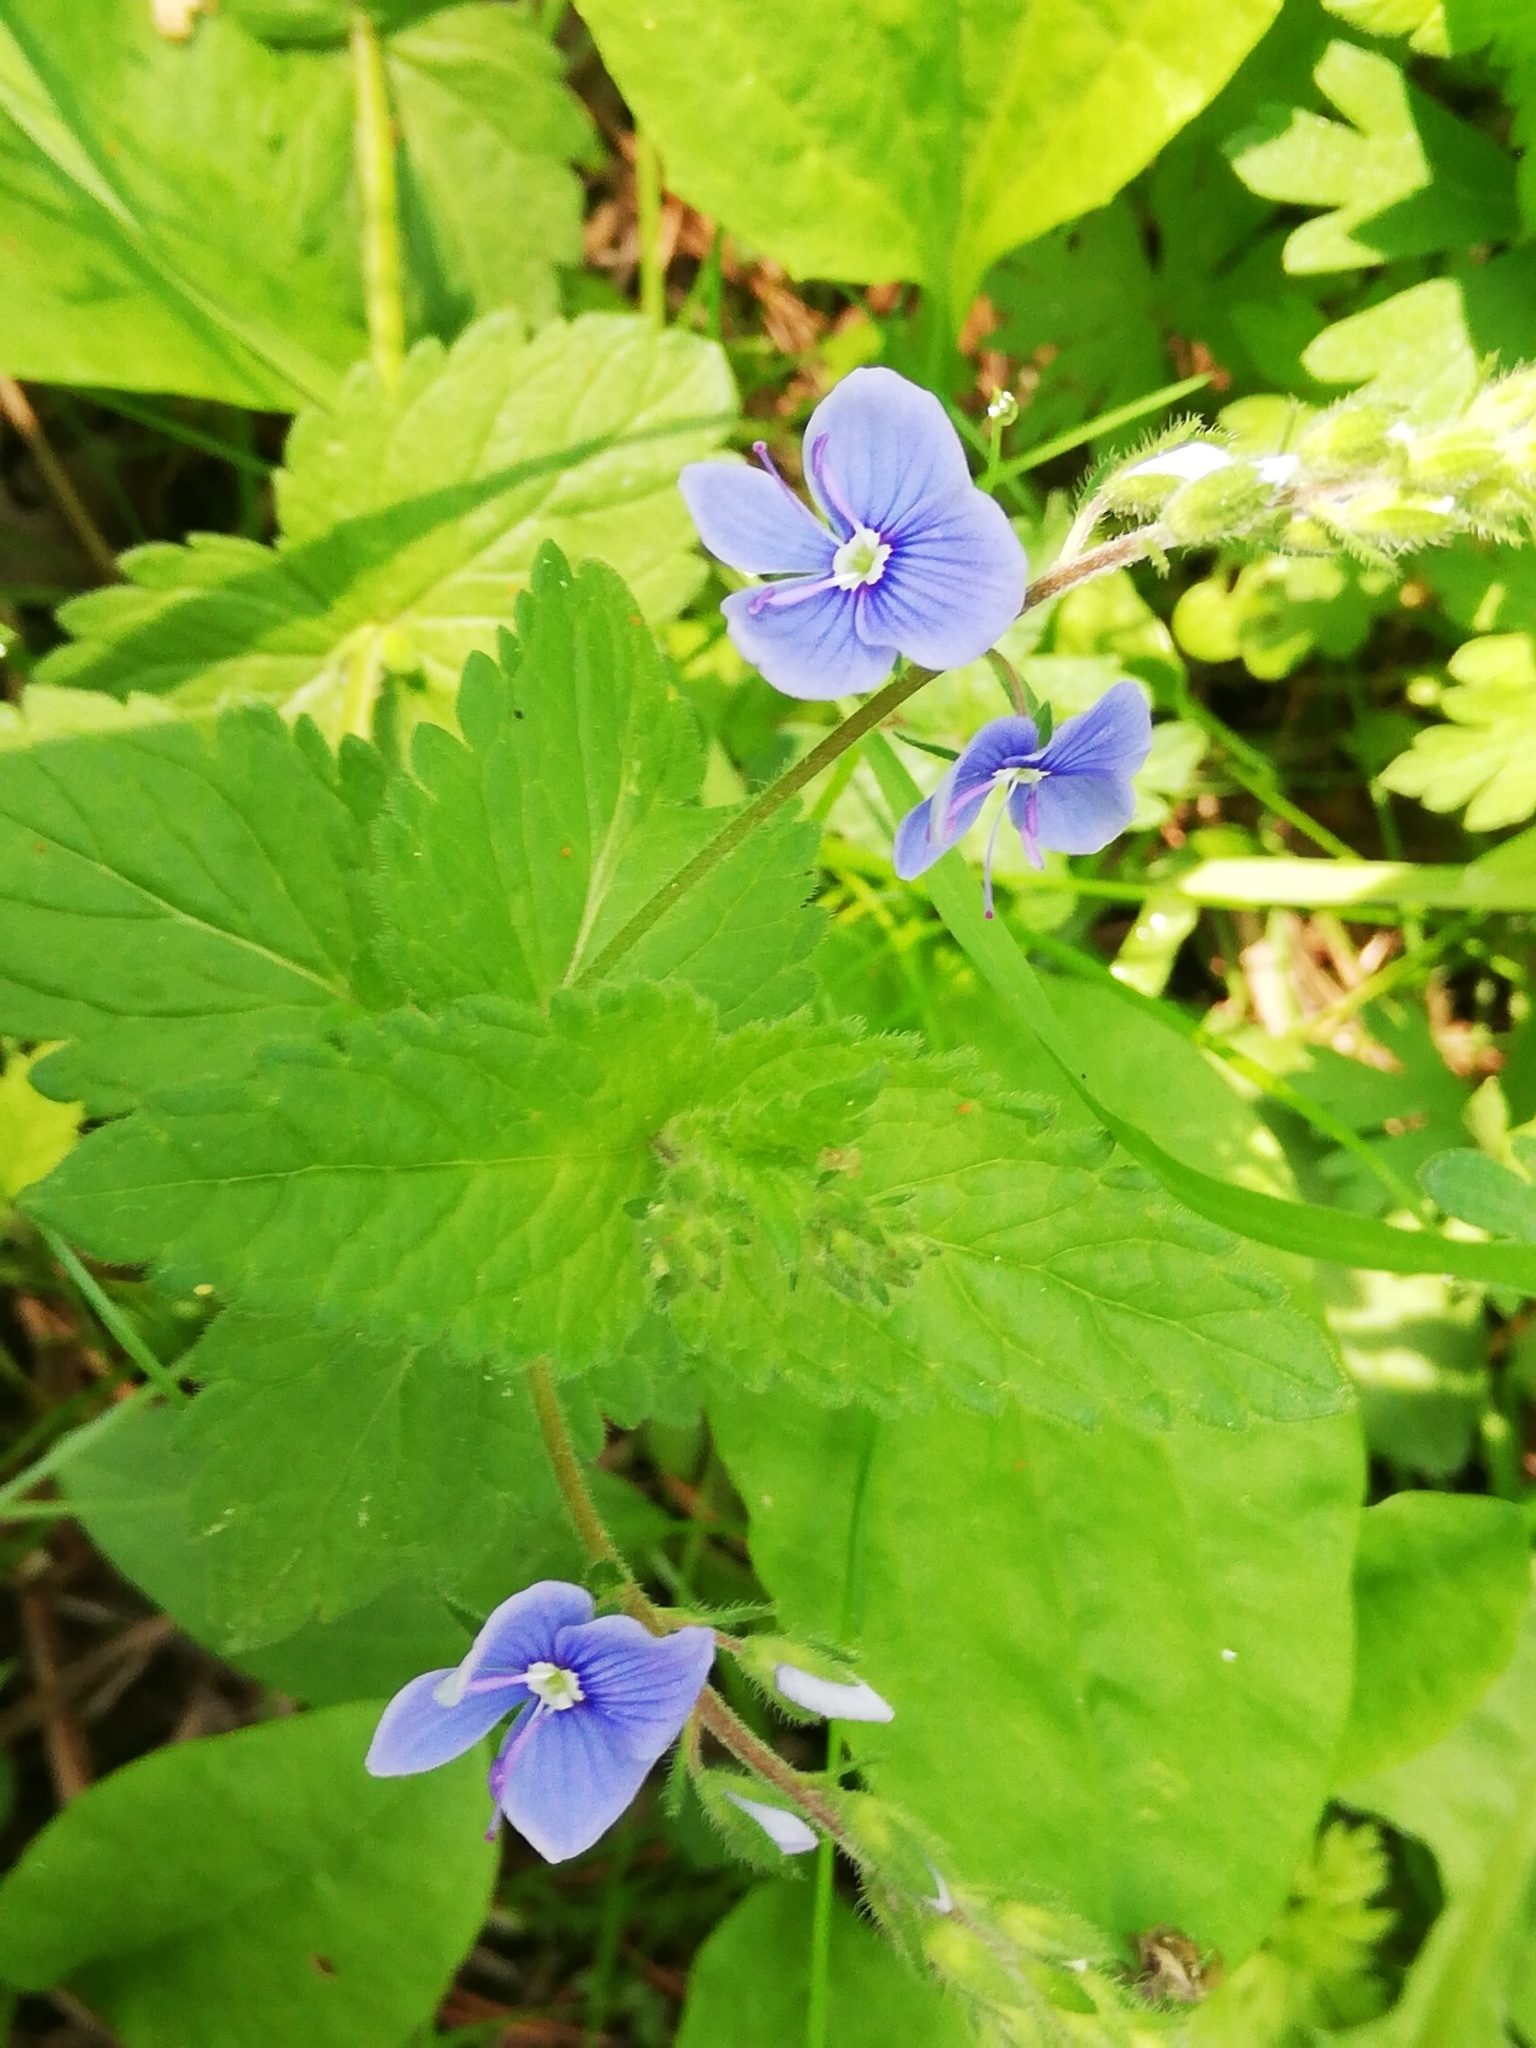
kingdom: Plantae
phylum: Tracheophyta
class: Magnoliopsida
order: Lamiales
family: Plantaginaceae
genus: Veronica
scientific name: Veronica chamaedrys
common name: Germander speedwell
